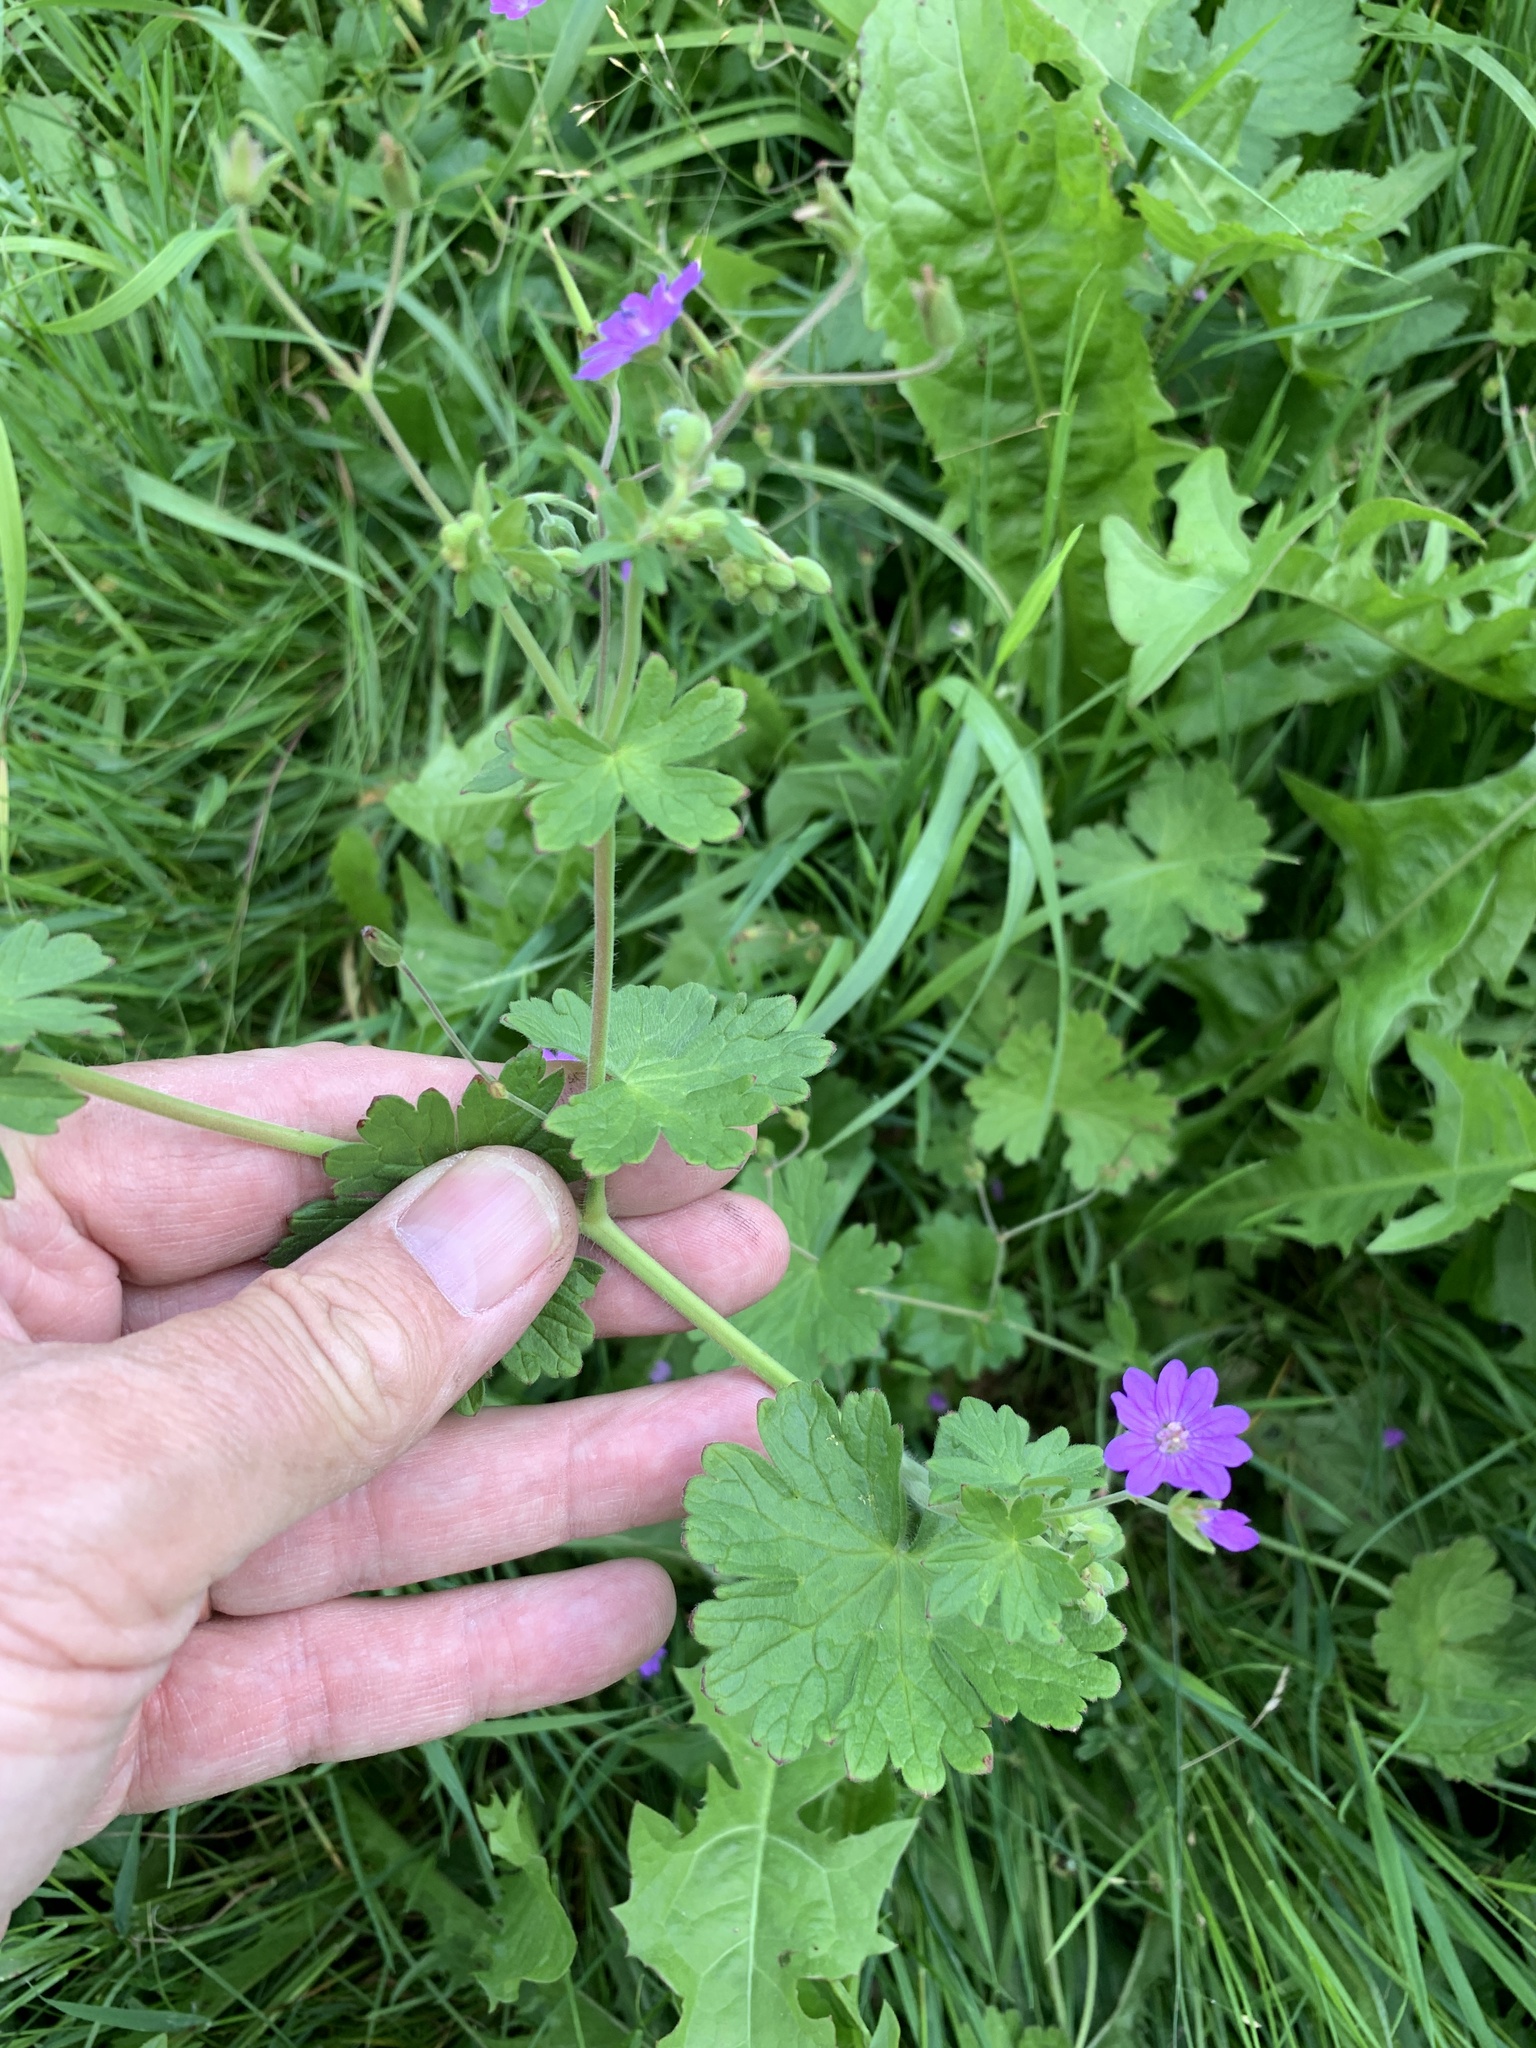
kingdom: Plantae
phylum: Tracheophyta
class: Magnoliopsida
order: Geraniales
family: Geraniaceae
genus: Geranium
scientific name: Geranium pyrenaicum
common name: Hedgerow crane's-bill
